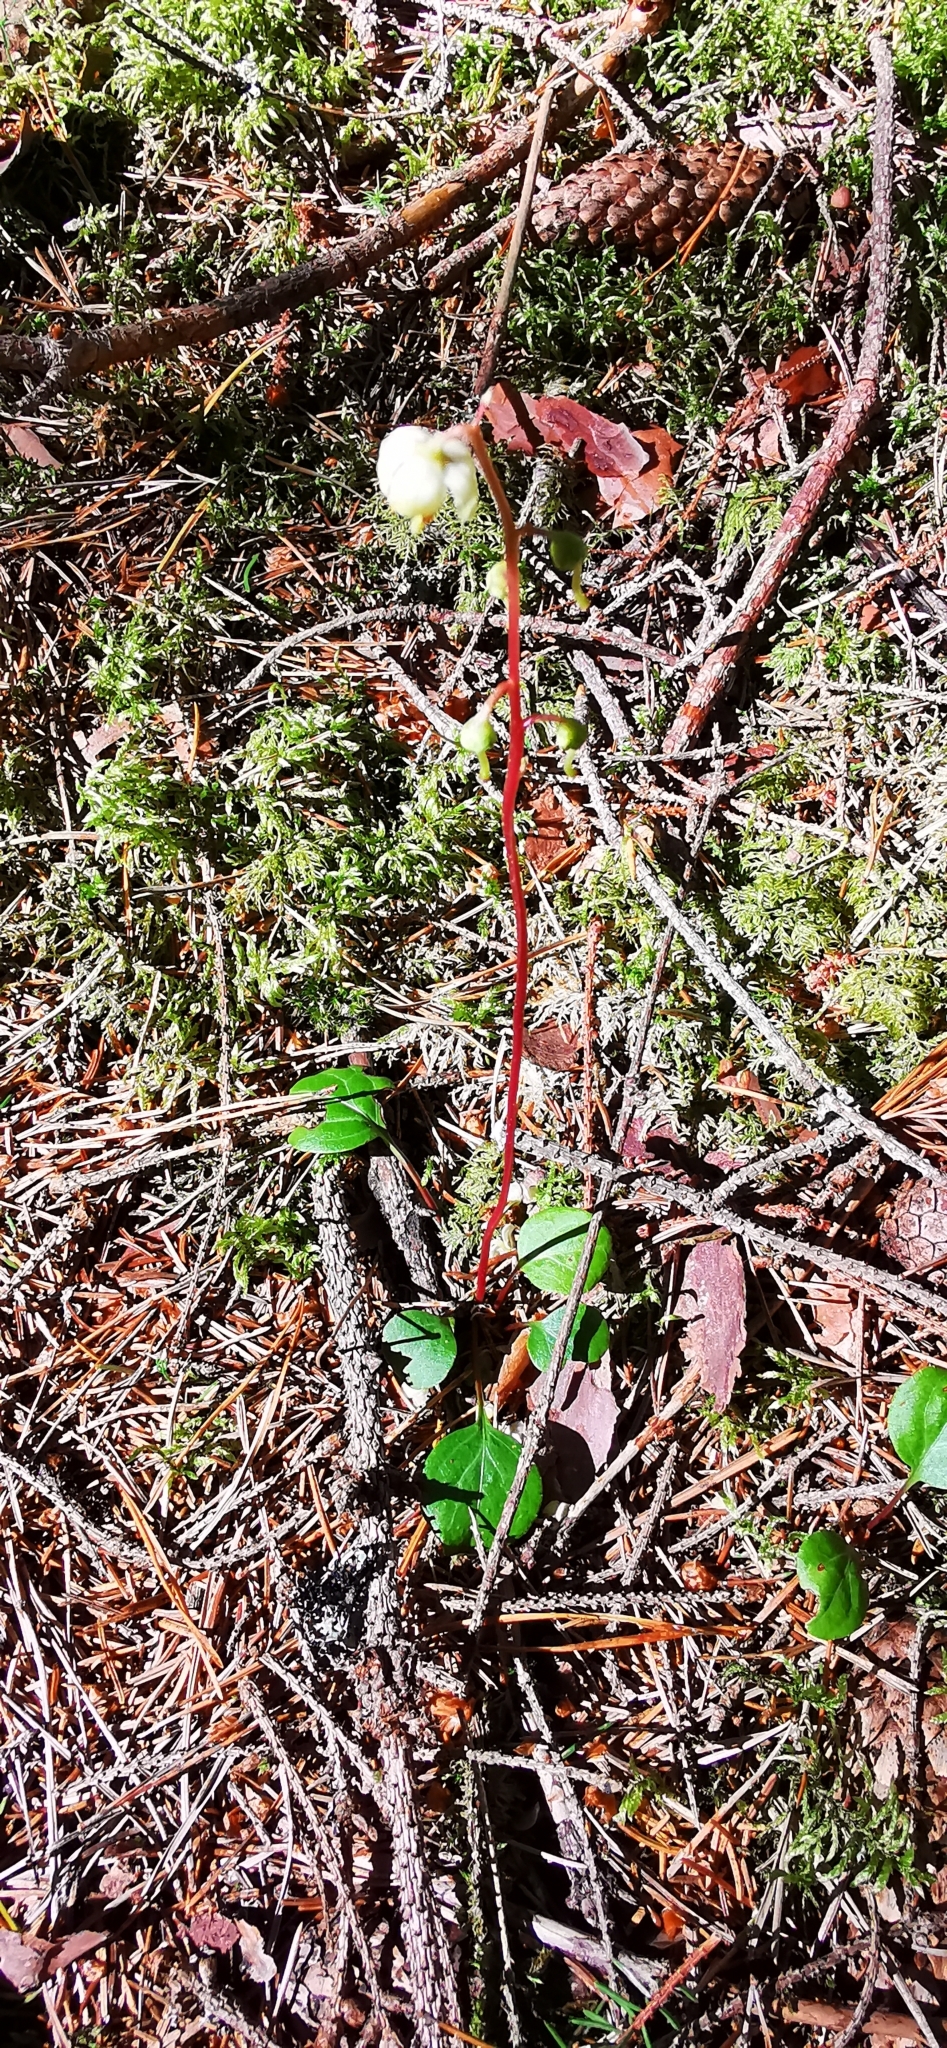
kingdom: Plantae
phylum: Tracheophyta
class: Magnoliopsida
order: Ericales
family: Ericaceae
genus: Pyrola
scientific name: Pyrola chlorantha
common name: Green wintergreen
